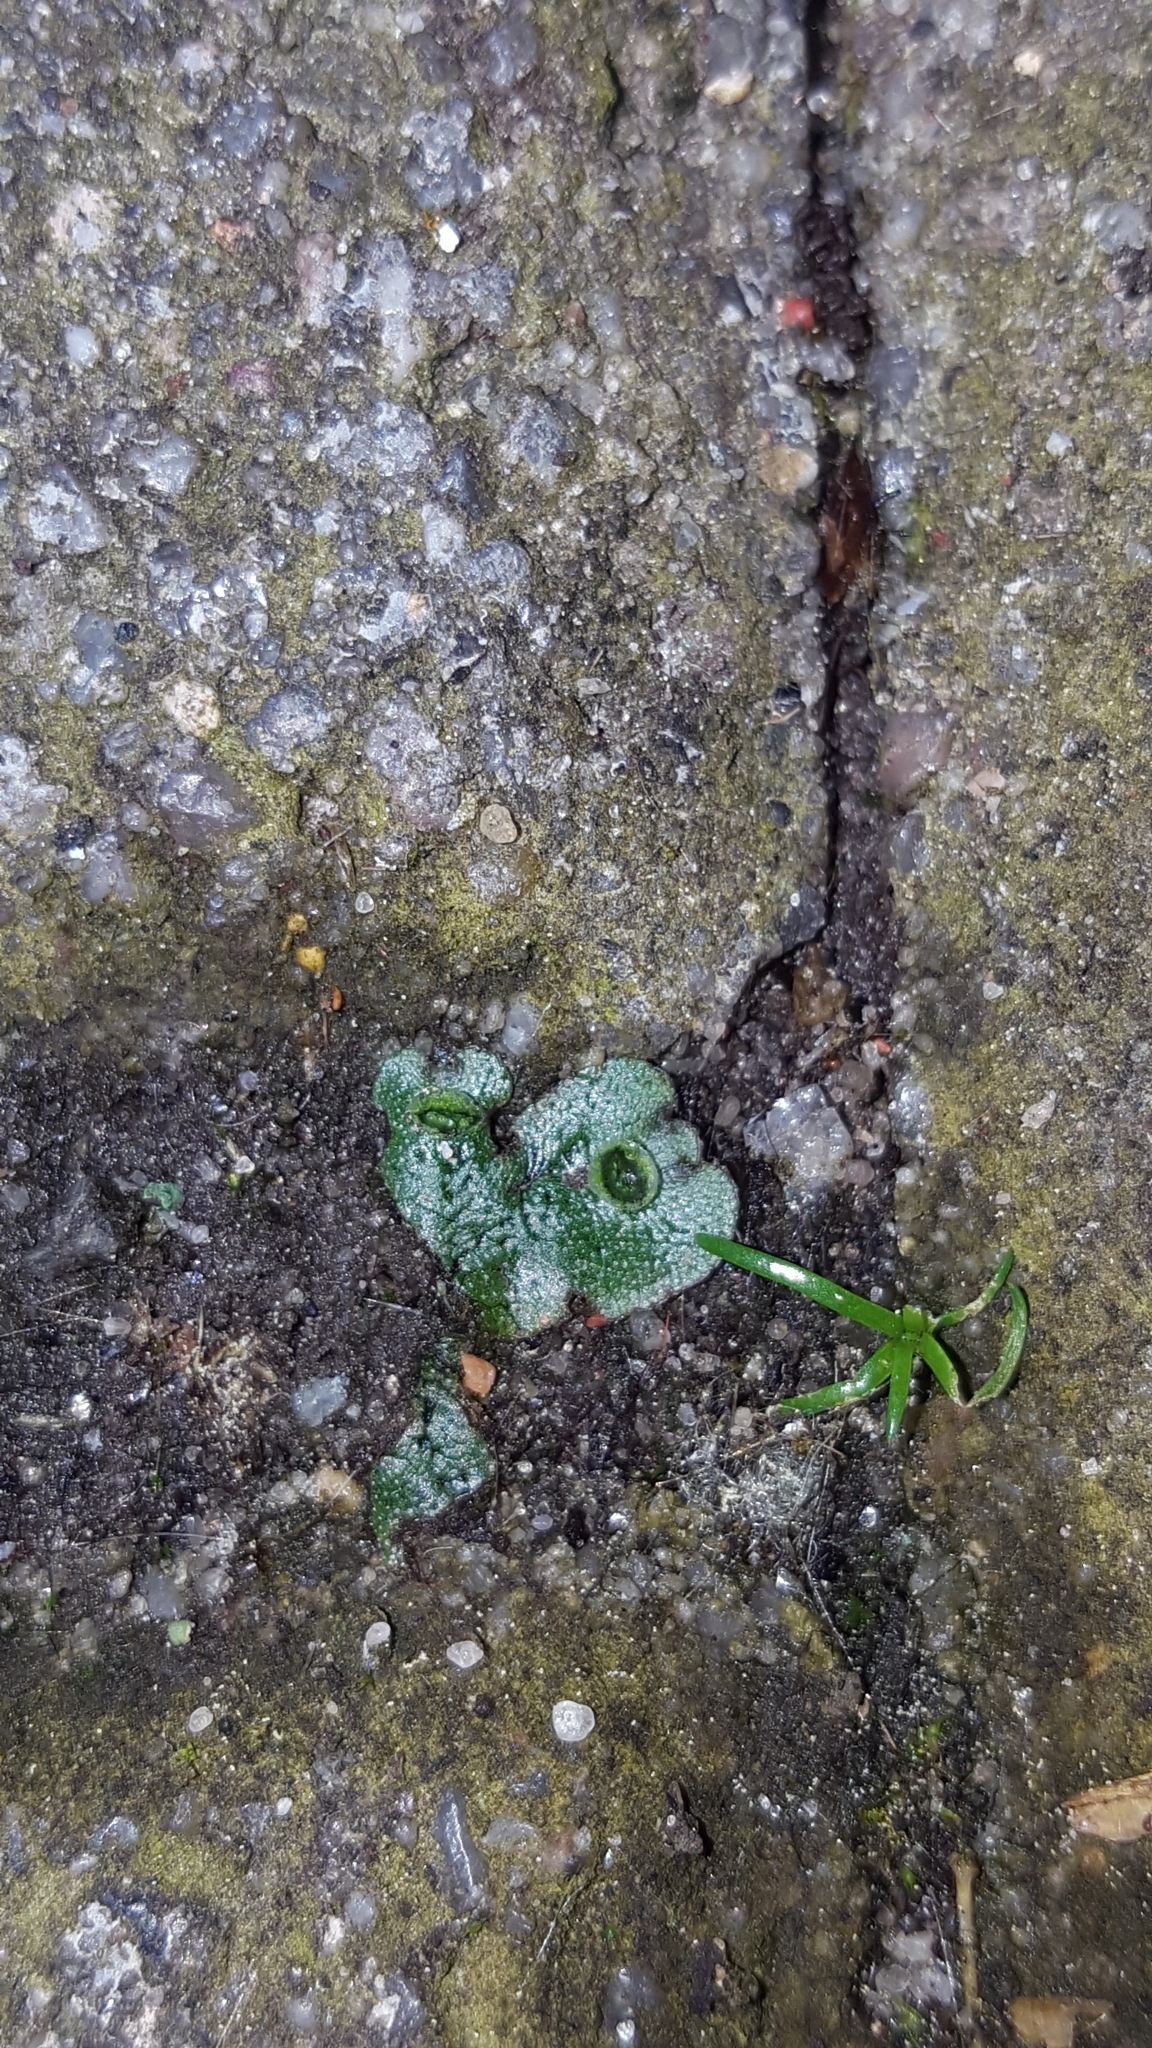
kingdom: Plantae
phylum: Marchantiophyta
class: Marchantiopsida
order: Marchantiales
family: Marchantiaceae
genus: Marchantia
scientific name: Marchantia polymorpha
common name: Common liverwort
